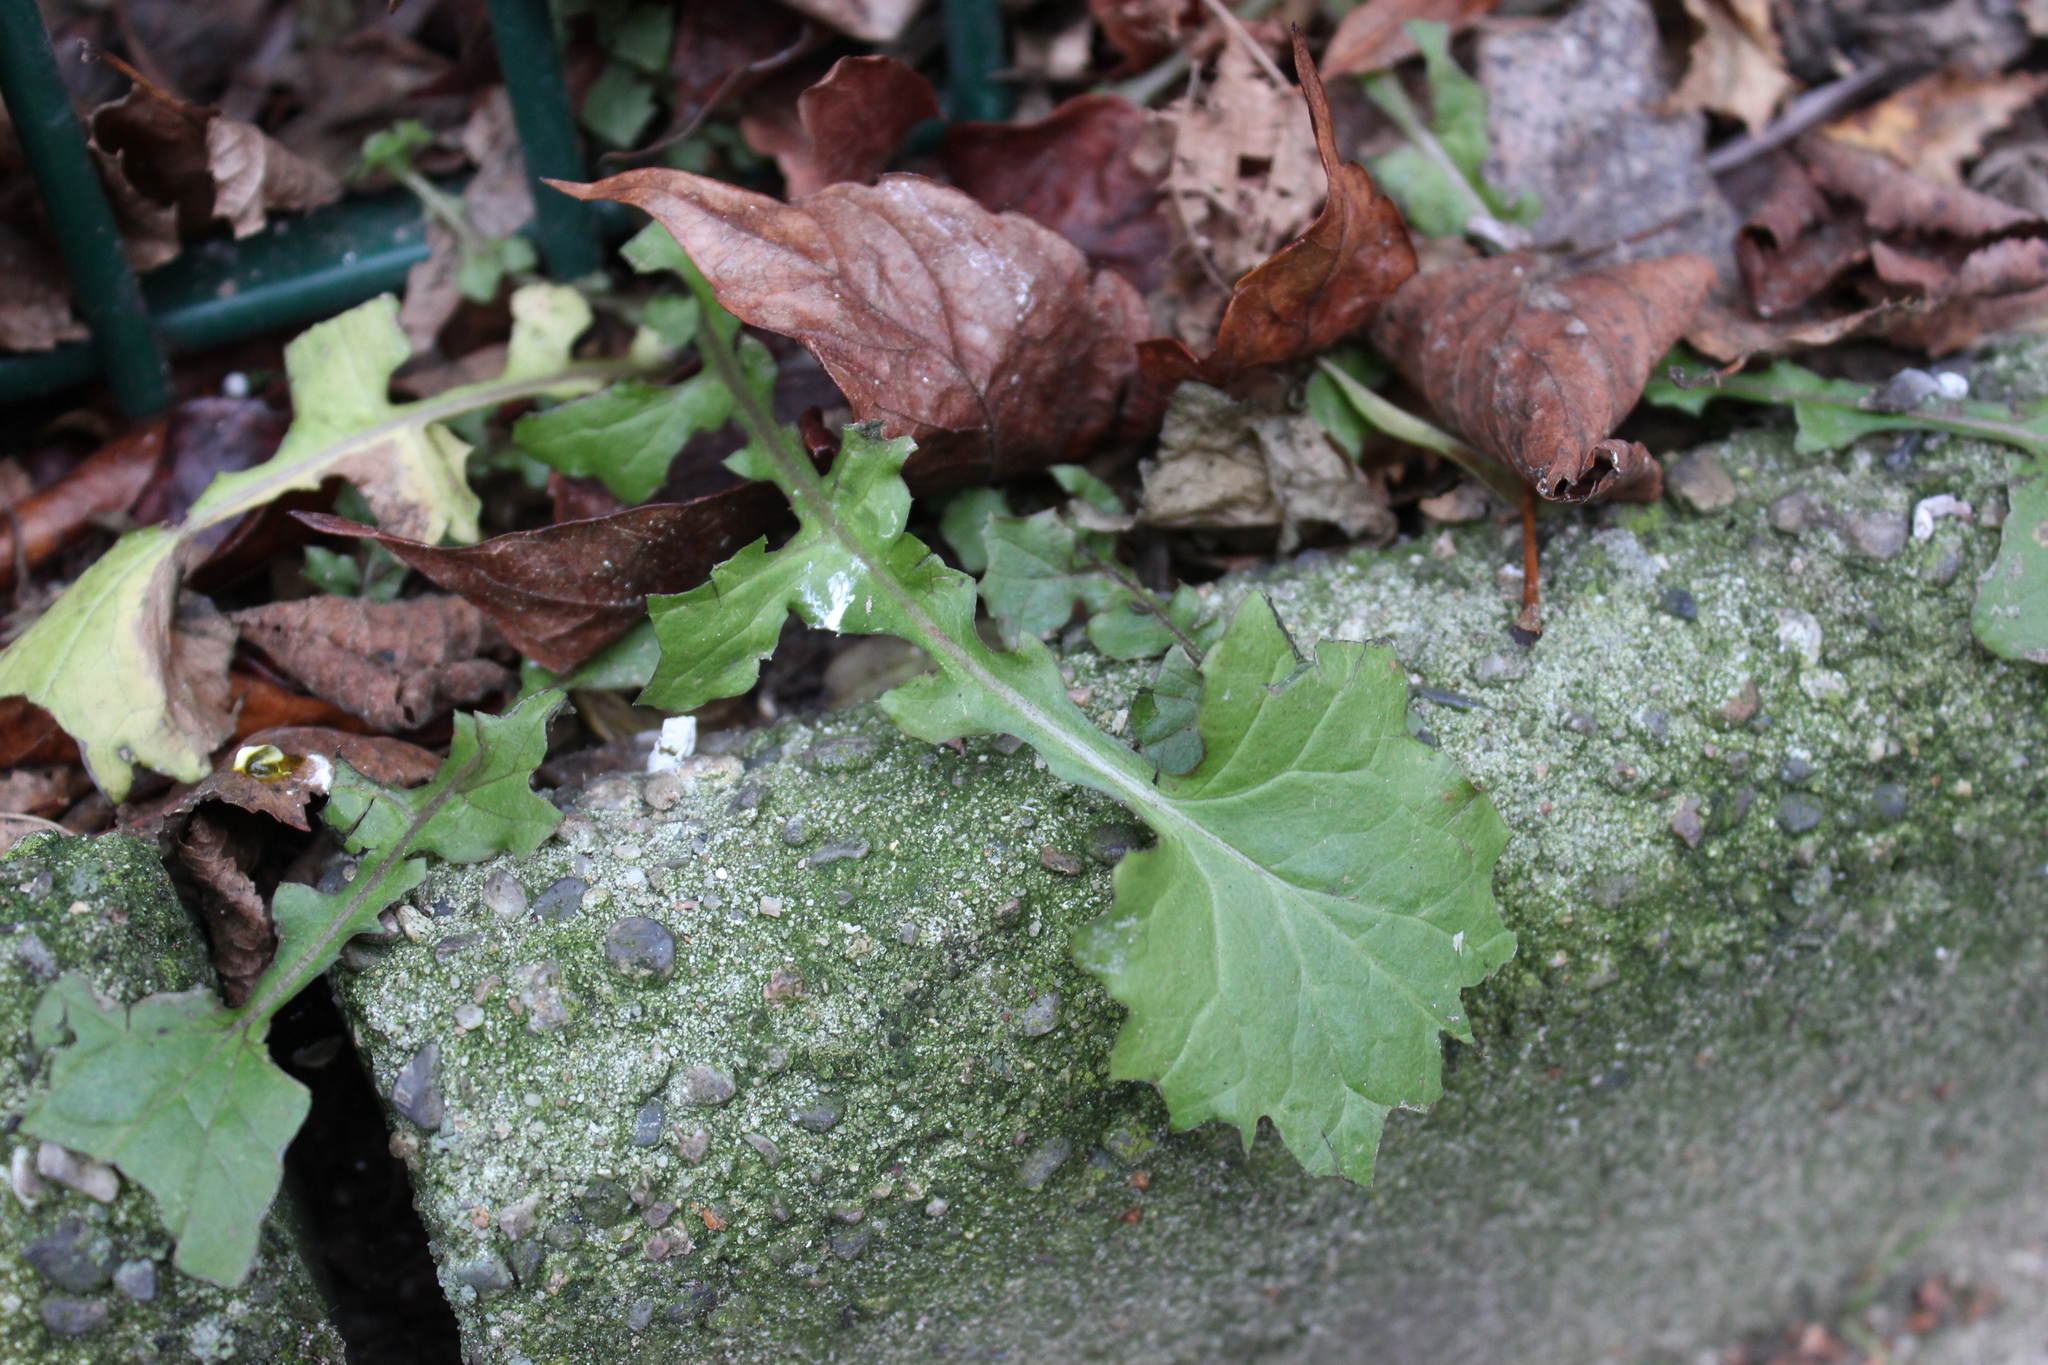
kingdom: Plantae
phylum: Tracheophyta
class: Magnoliopsida
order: Asterales
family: Asteraceae
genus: Mycelis
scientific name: Mycelis muralis
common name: Wall lettuce
